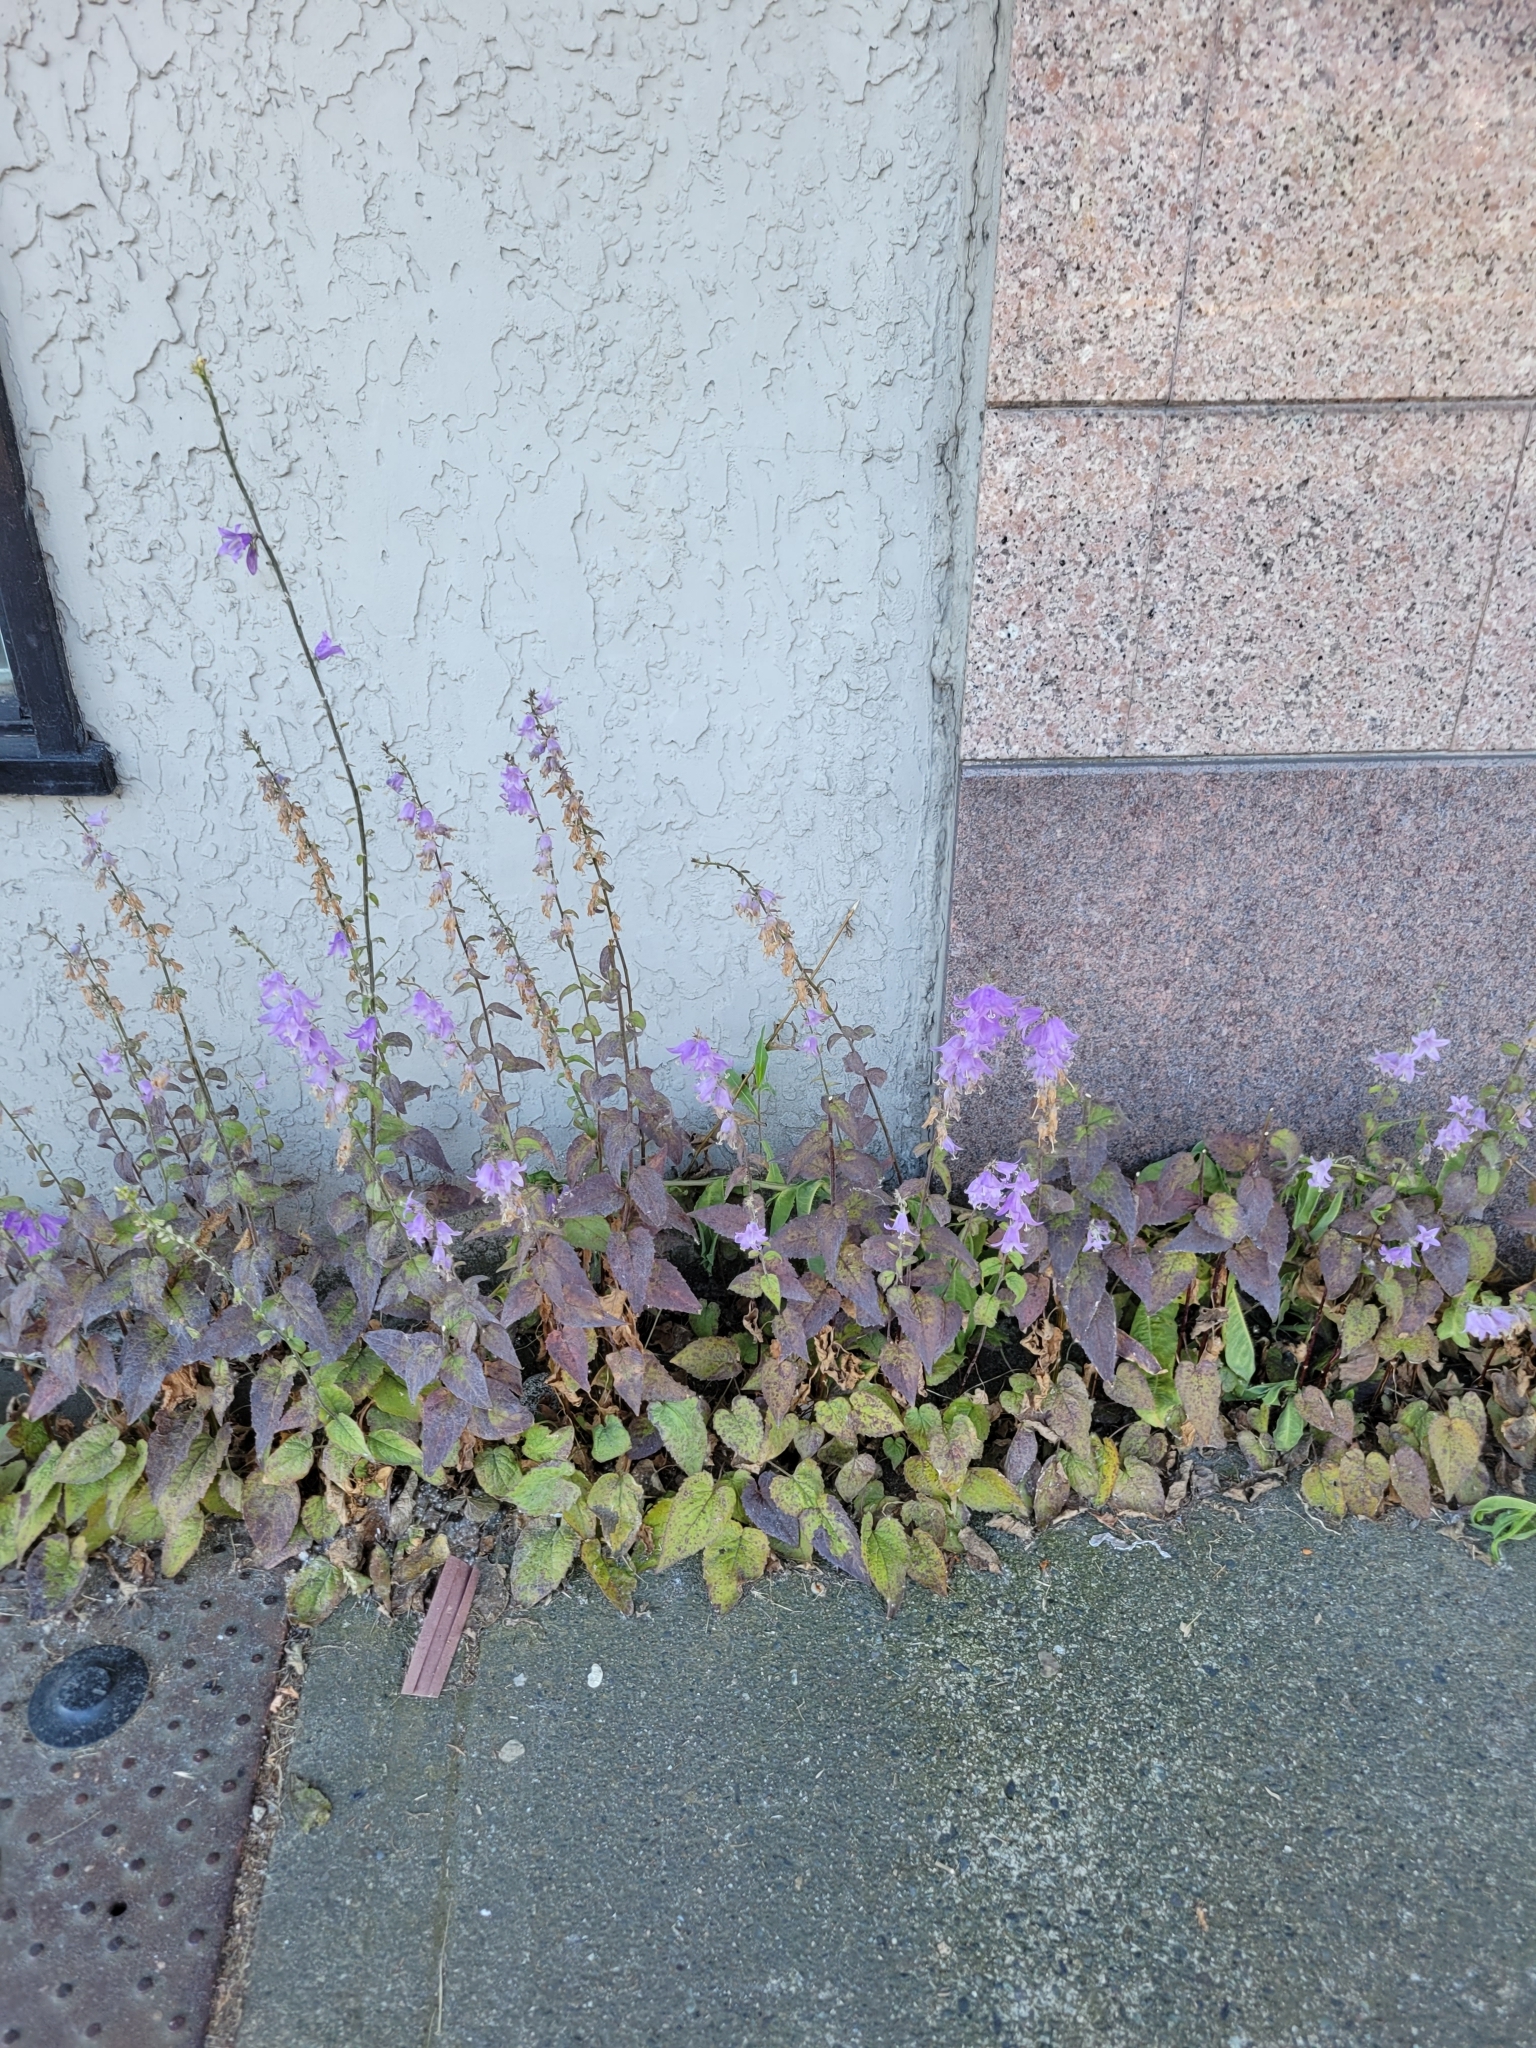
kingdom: Plantae
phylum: Tracheophyta
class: Magnoliopsida
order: Asterales
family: Campanulaceae
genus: Campanula
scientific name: Campanula rapunculoides
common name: Creeping bellflower
